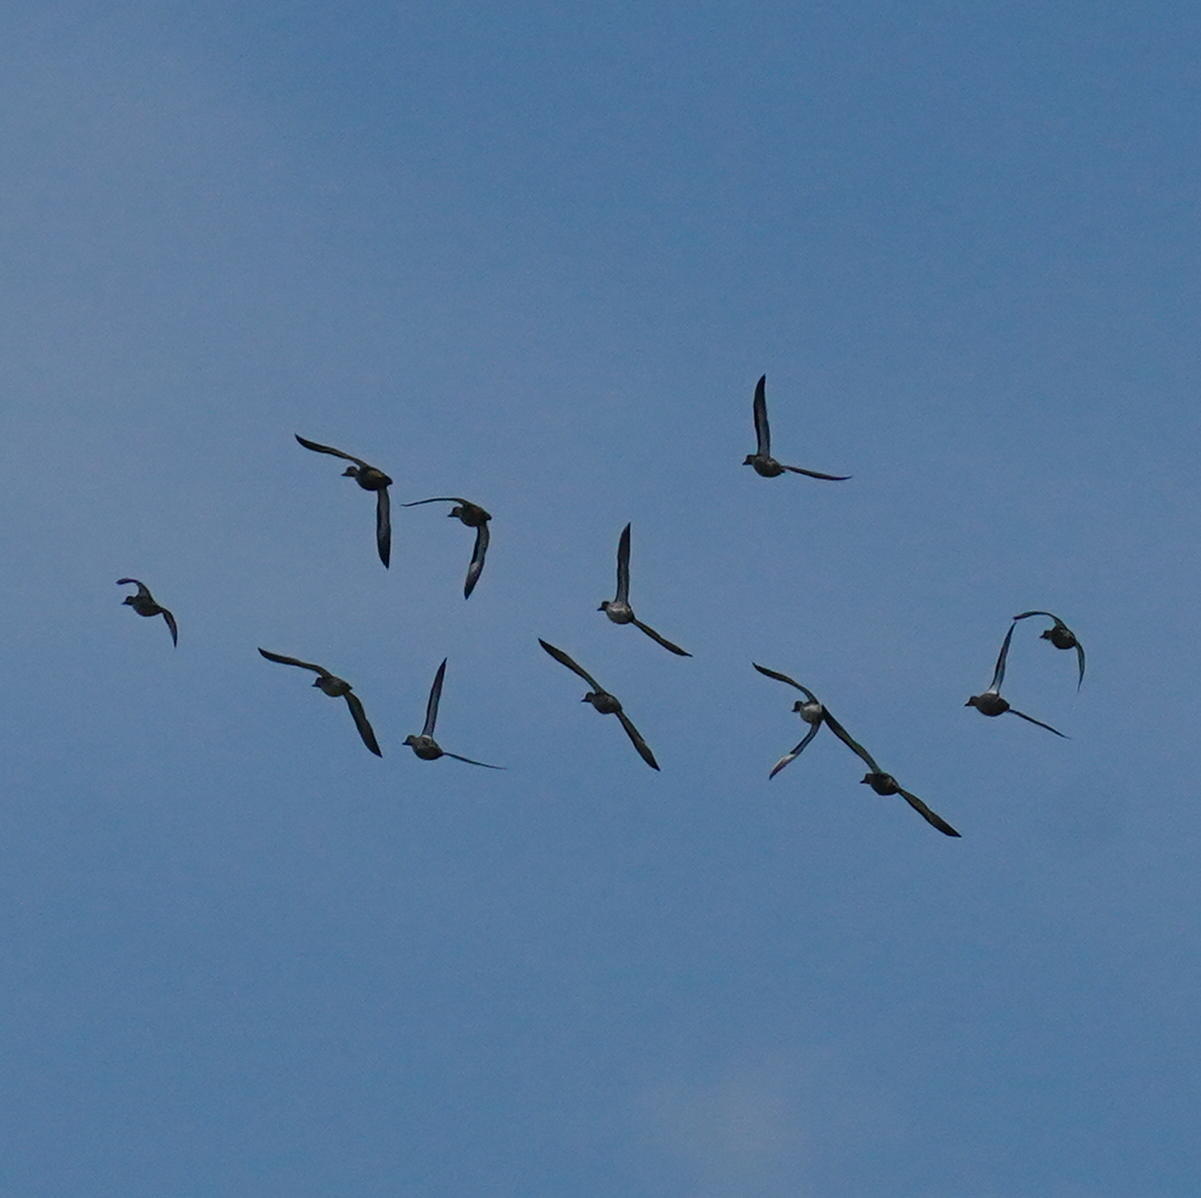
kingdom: Animalia
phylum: Chordata
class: Aves
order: Anseriformes
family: Anatidae
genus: Spatula
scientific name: Spatula discors
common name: Blue-winged teal
